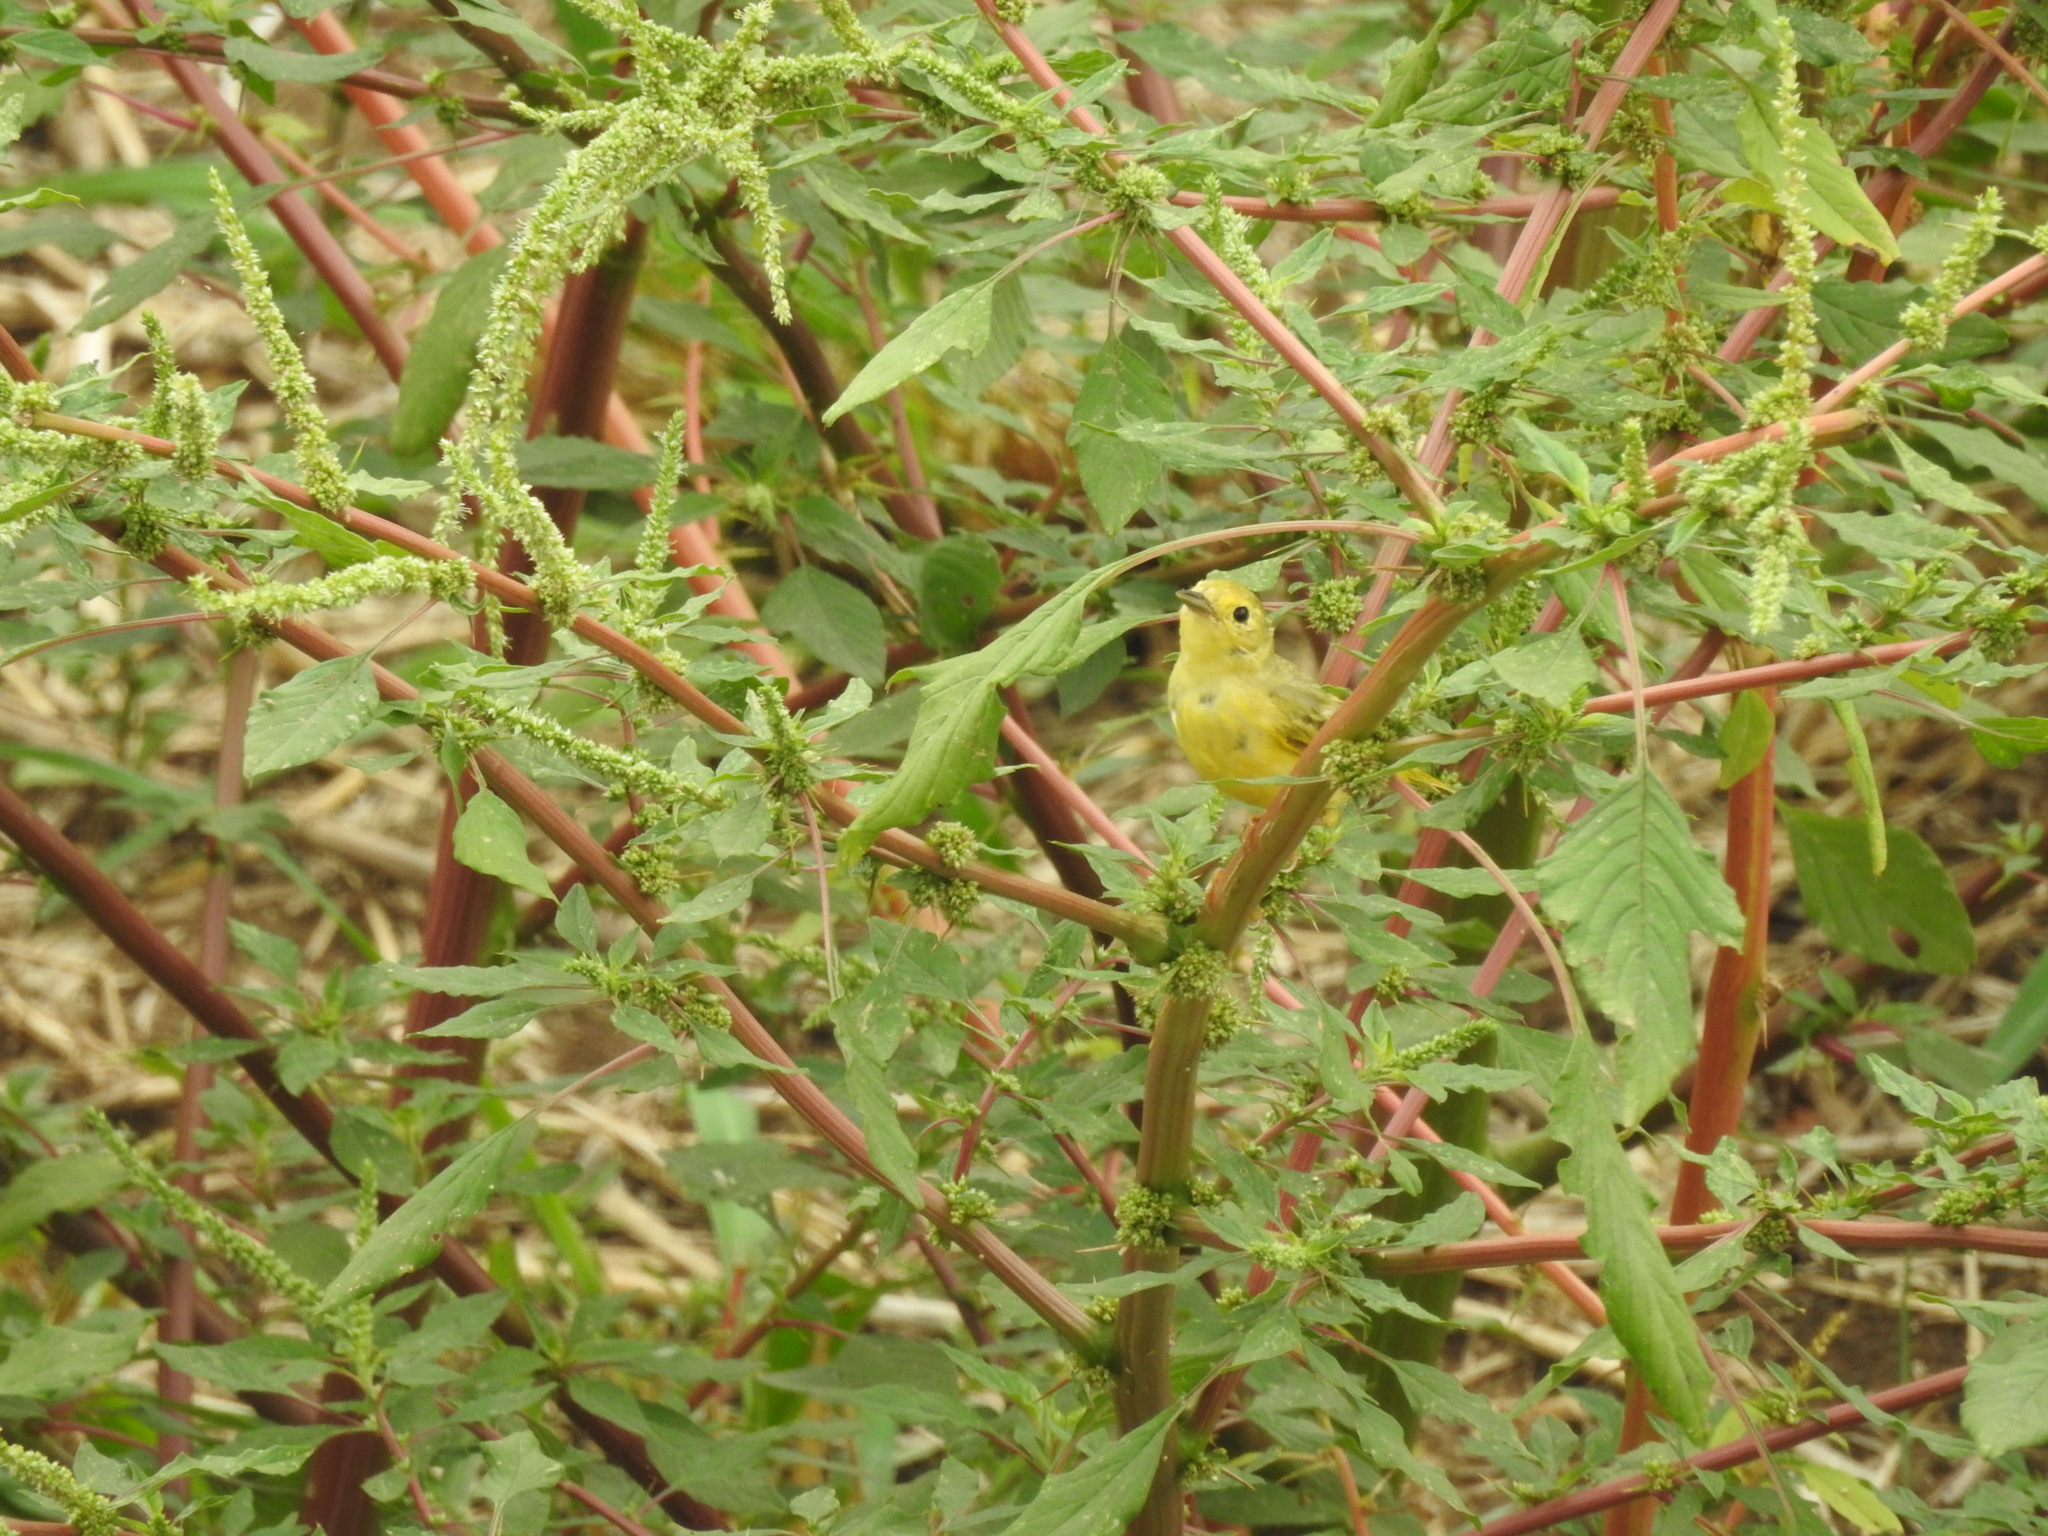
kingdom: Animalia
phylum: Chordata
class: Aves
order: Passeriformes
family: Parulidae
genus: Setophaga
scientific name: Setophaga petechia
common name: Yellow warbler
